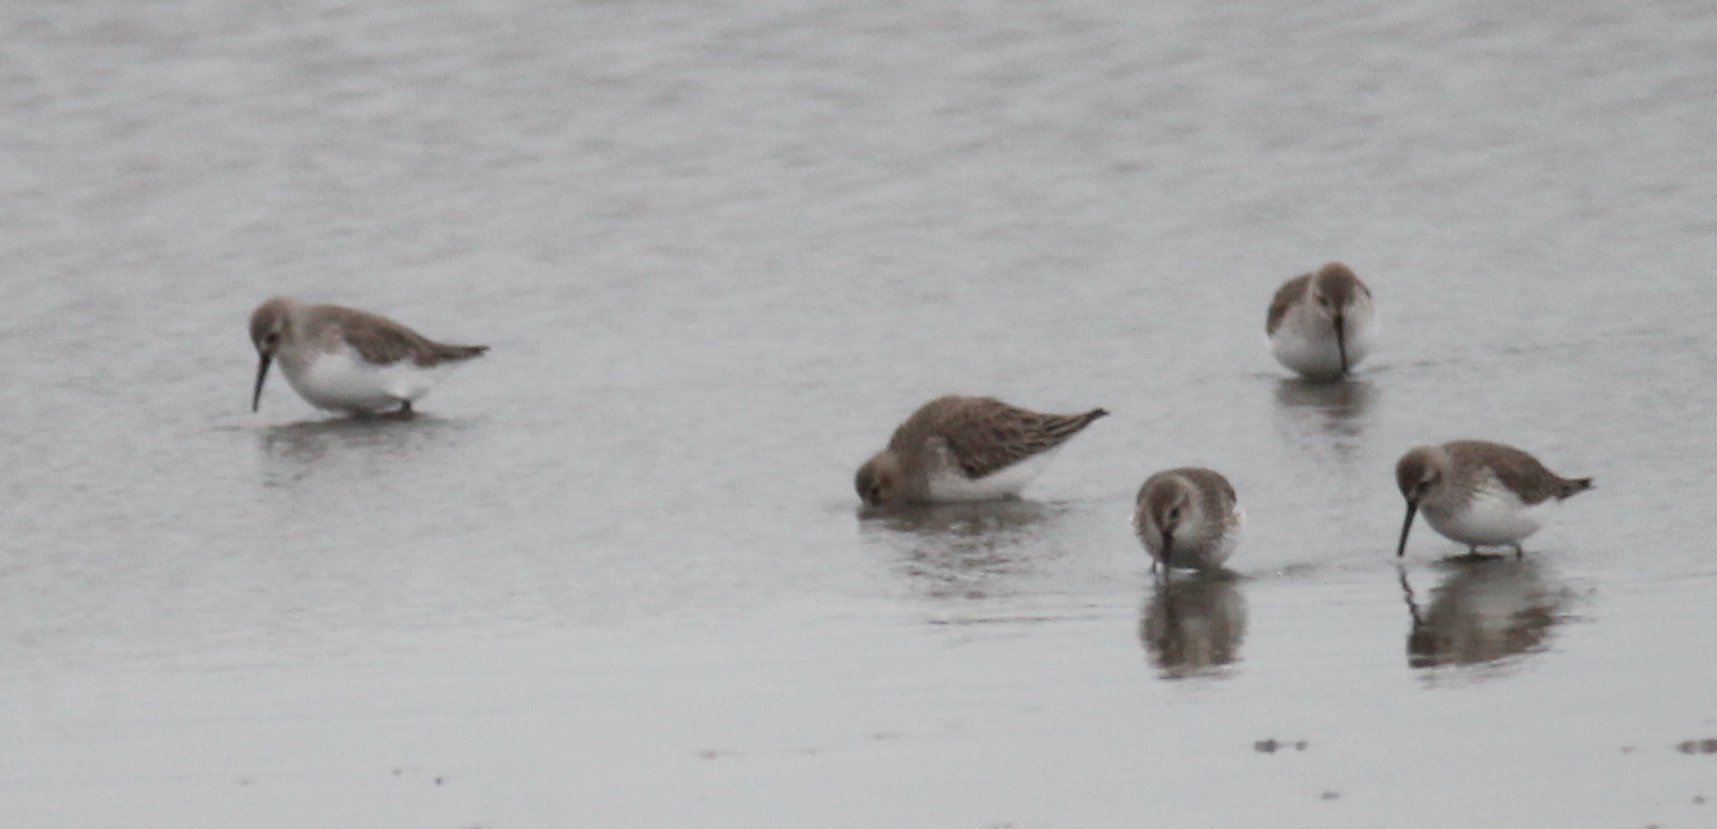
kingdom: Animalia
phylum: Chordata
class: Aves
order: Charadriiformes
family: Scolopacidae
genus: Calidris
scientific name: Calidris alpina
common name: Dunlin
